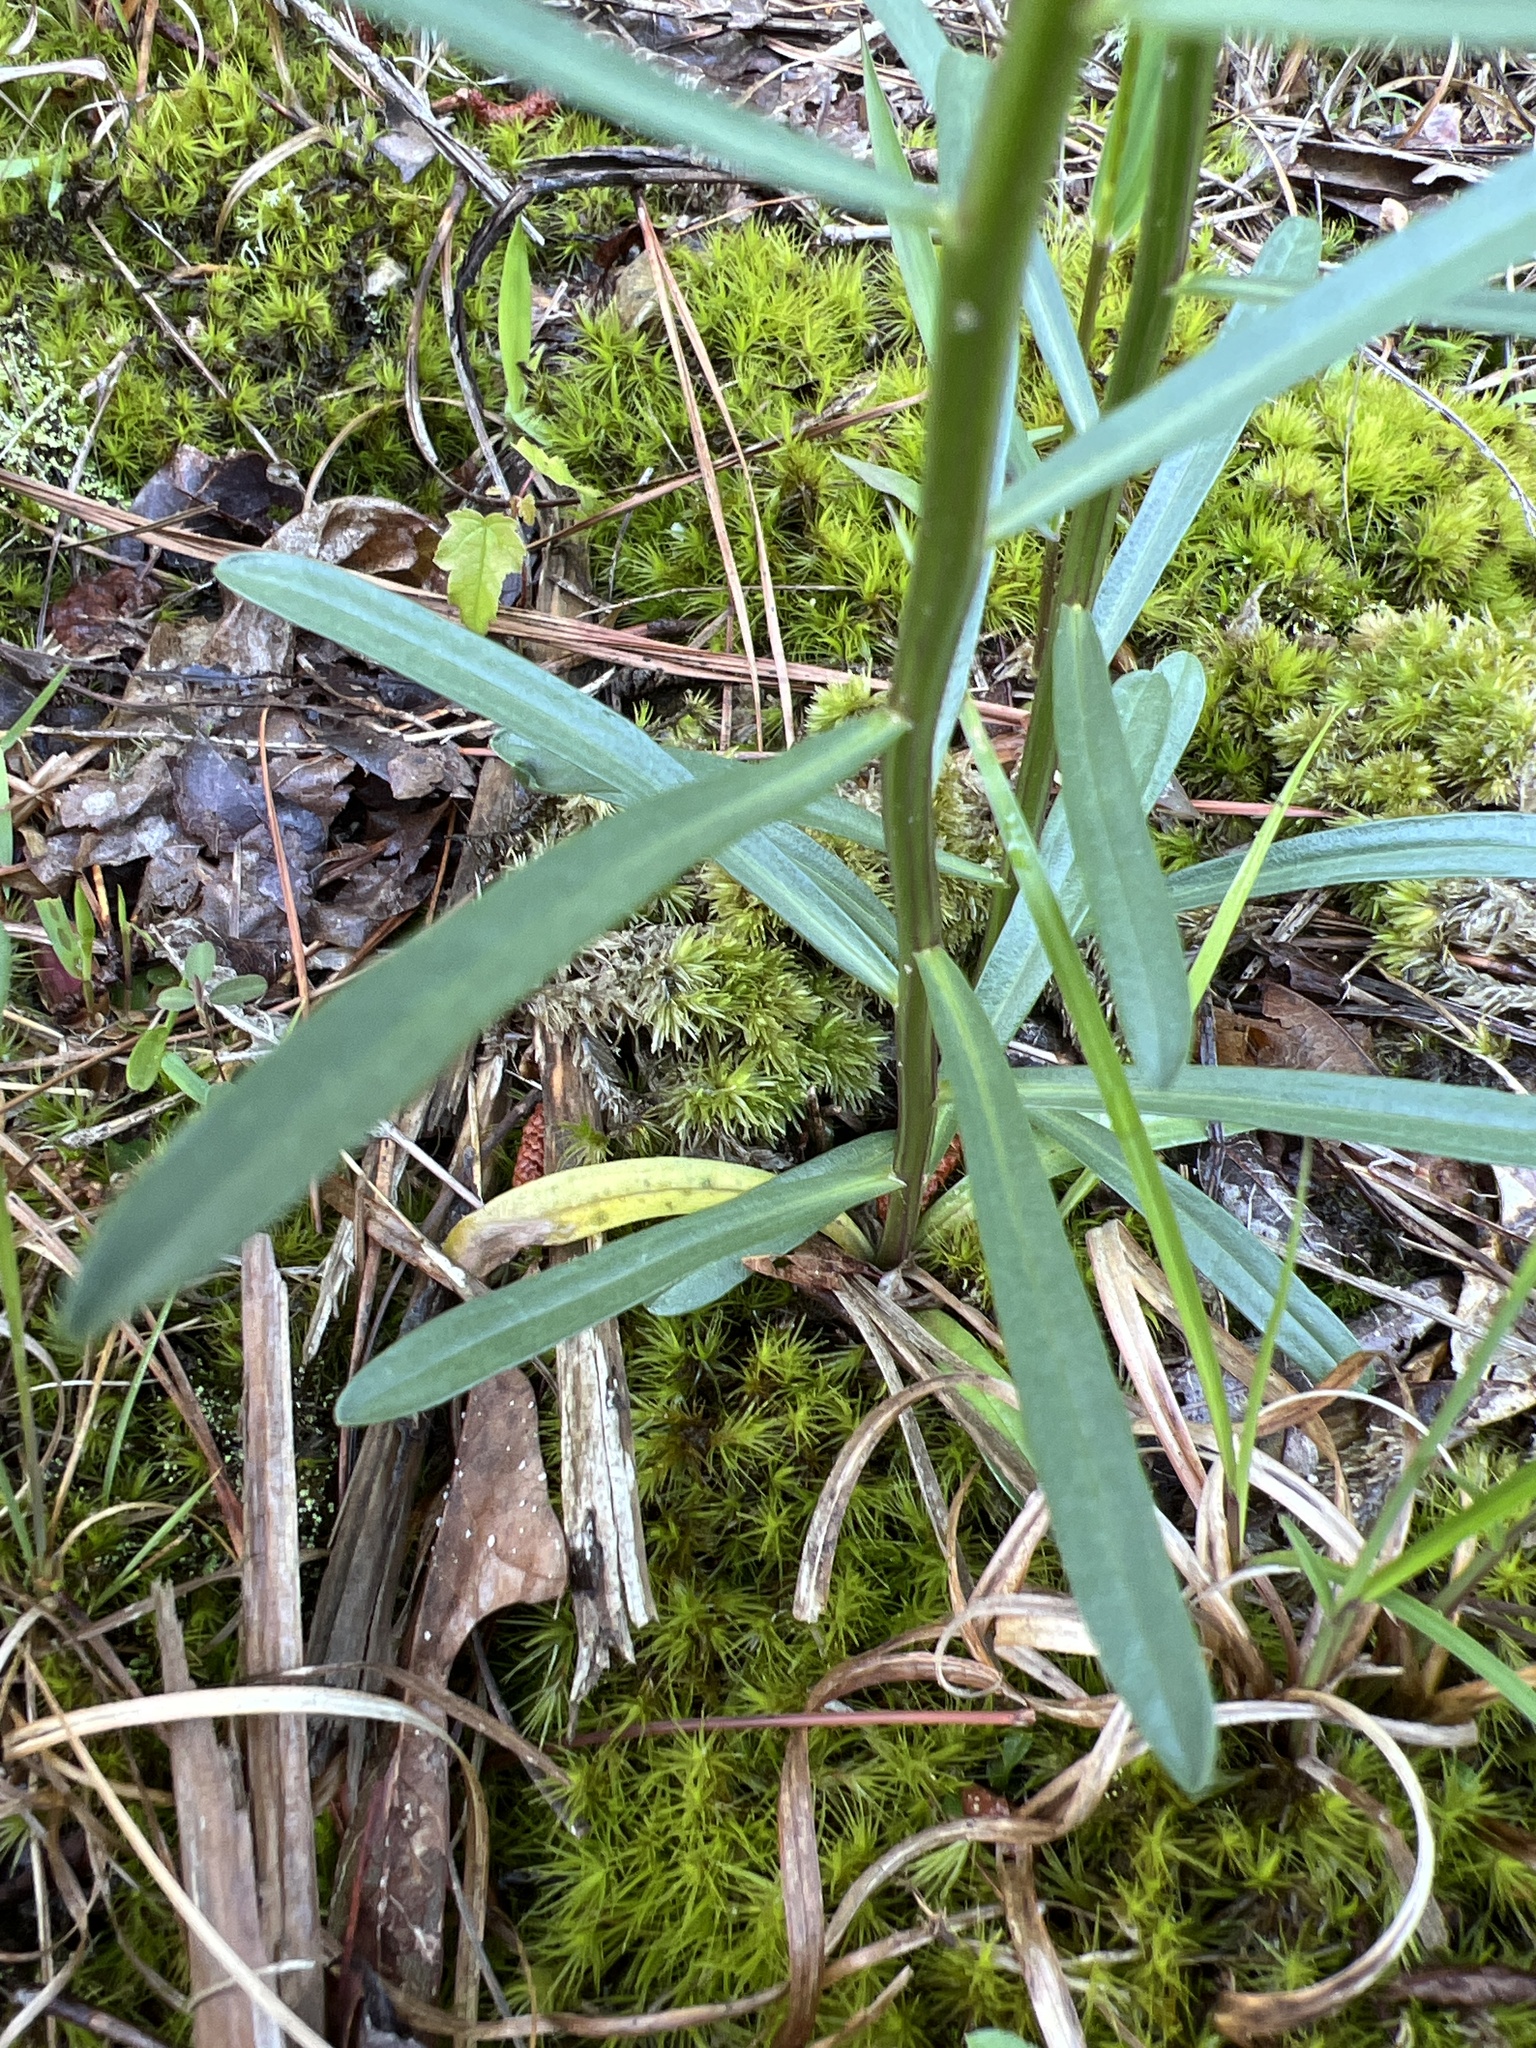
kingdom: Plantae
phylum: Tracheophyta
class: Magnoliopsida
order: Asterales
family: Asteraceae
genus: Sericocarpus
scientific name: Sericocarpus linifolius
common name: Narrow-leaf aster
